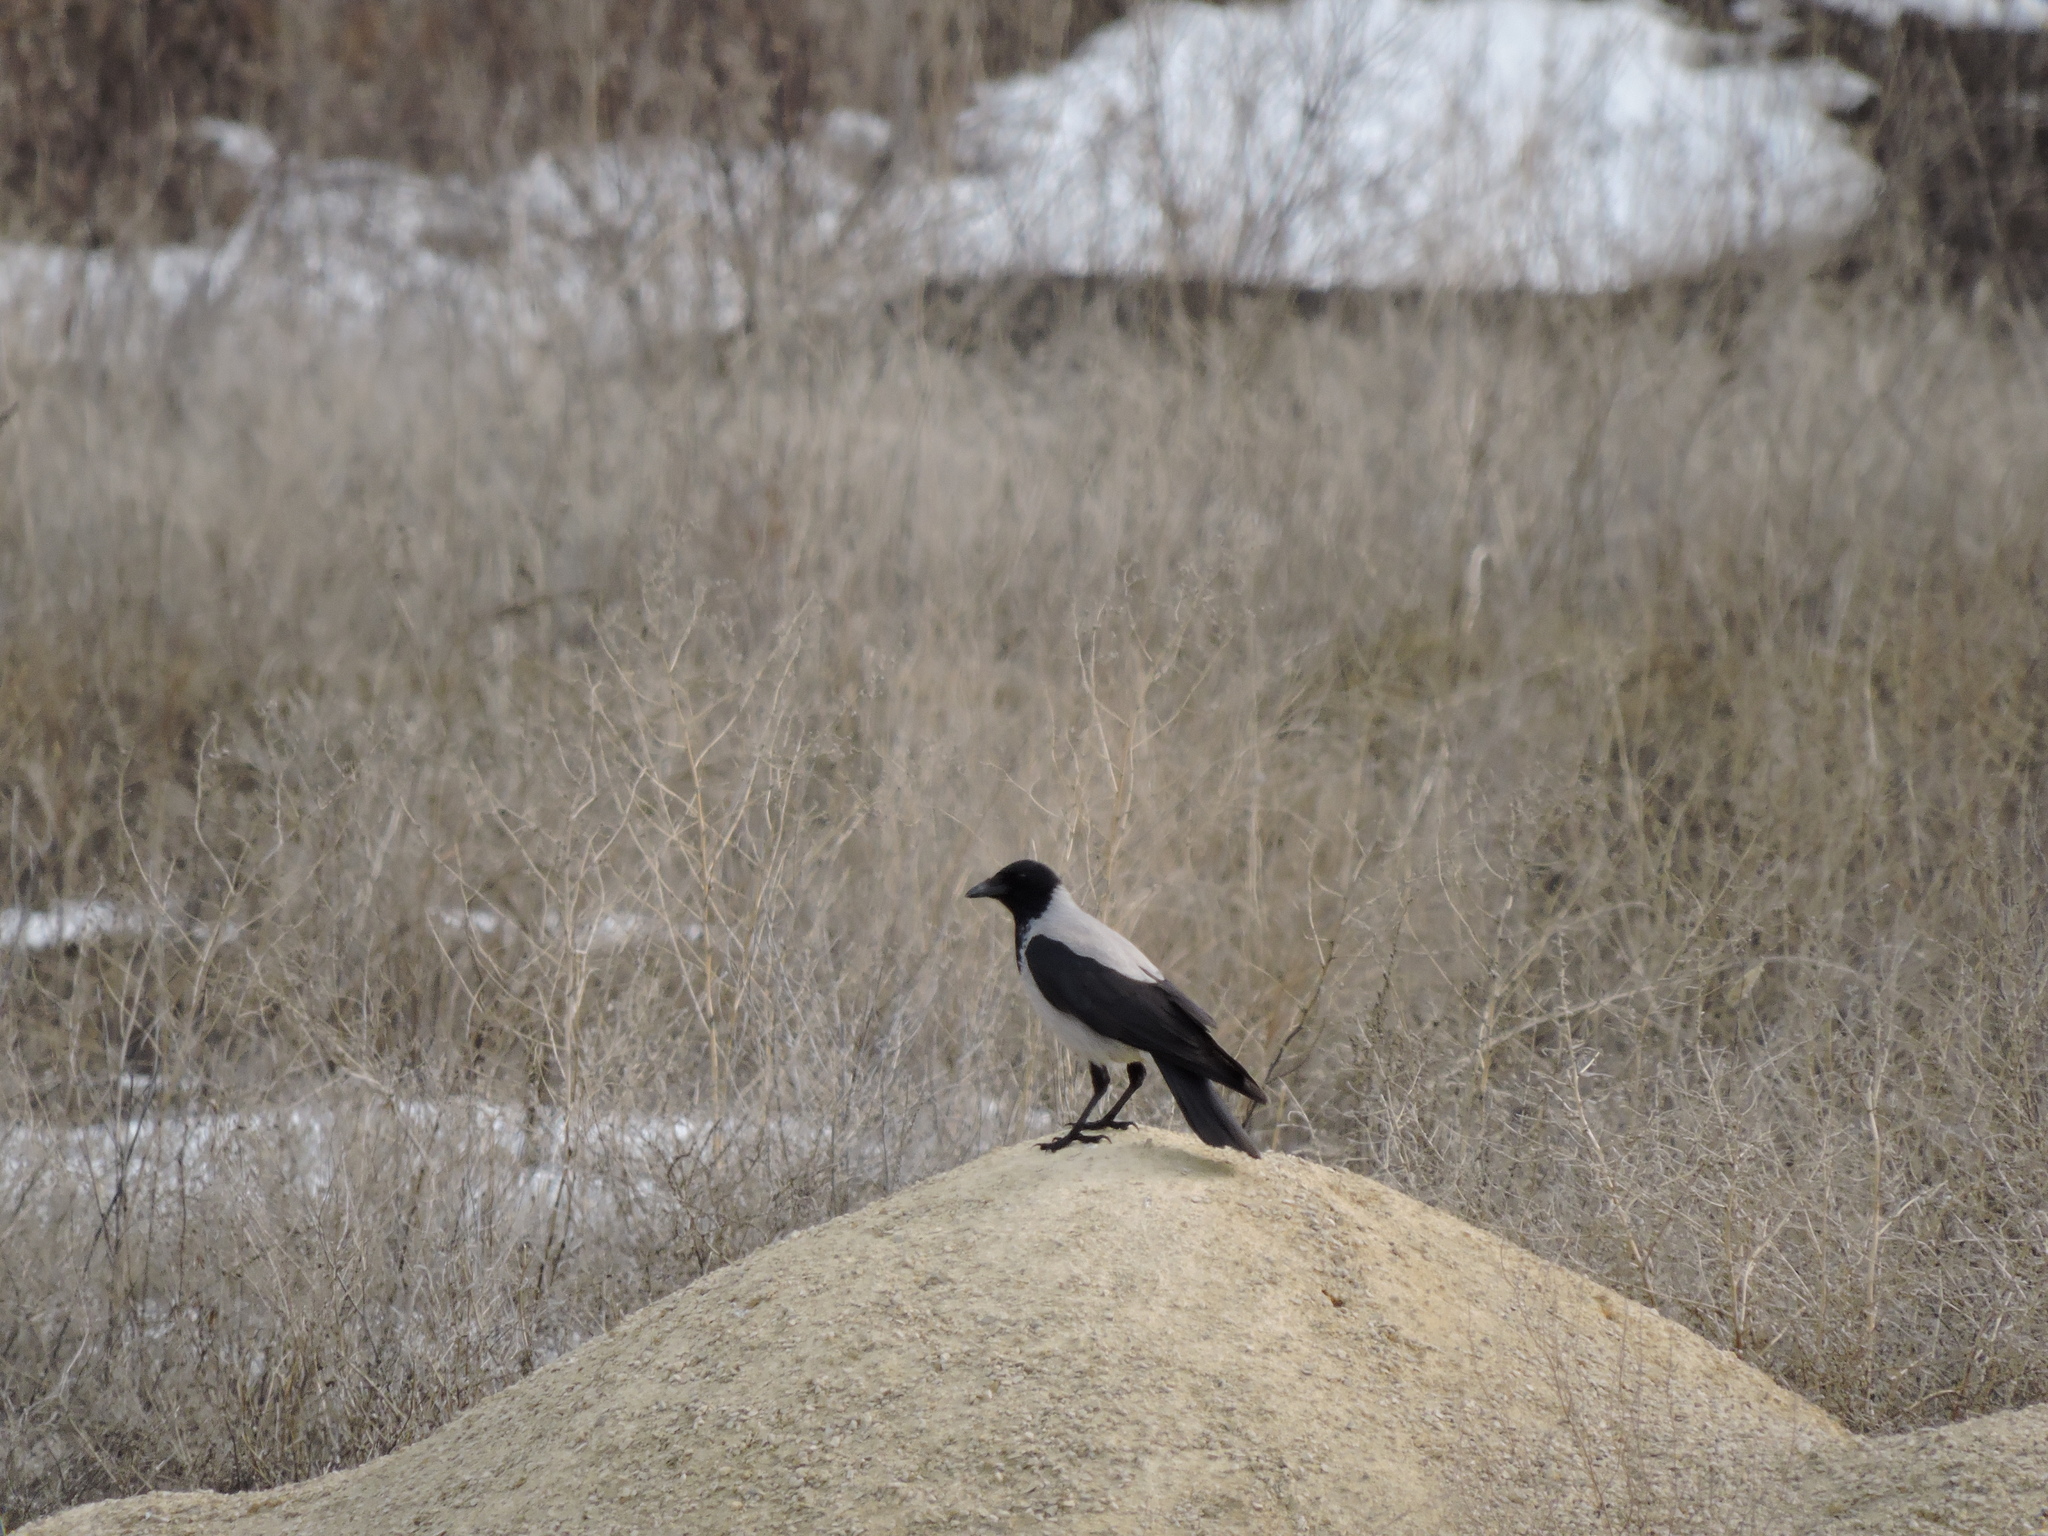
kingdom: Animalia
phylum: Chordata
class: Aves
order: Passeriformes
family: Corvidae
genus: Corvus
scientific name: Corvus cornix
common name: Hooded crow
